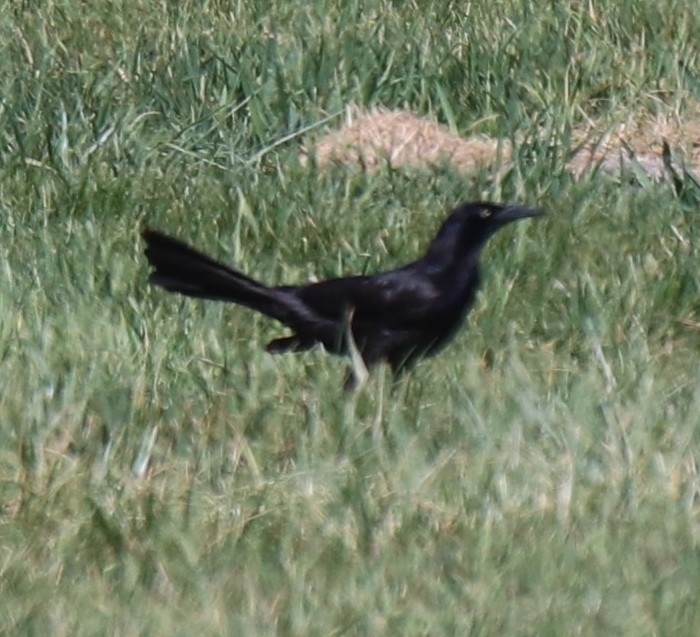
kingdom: Animalia
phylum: Chordata
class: Aves
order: Passeriformes
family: Icteridae
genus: Quiscalus
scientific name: Quiscalus mexicanus
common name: Great-tailed grackle
